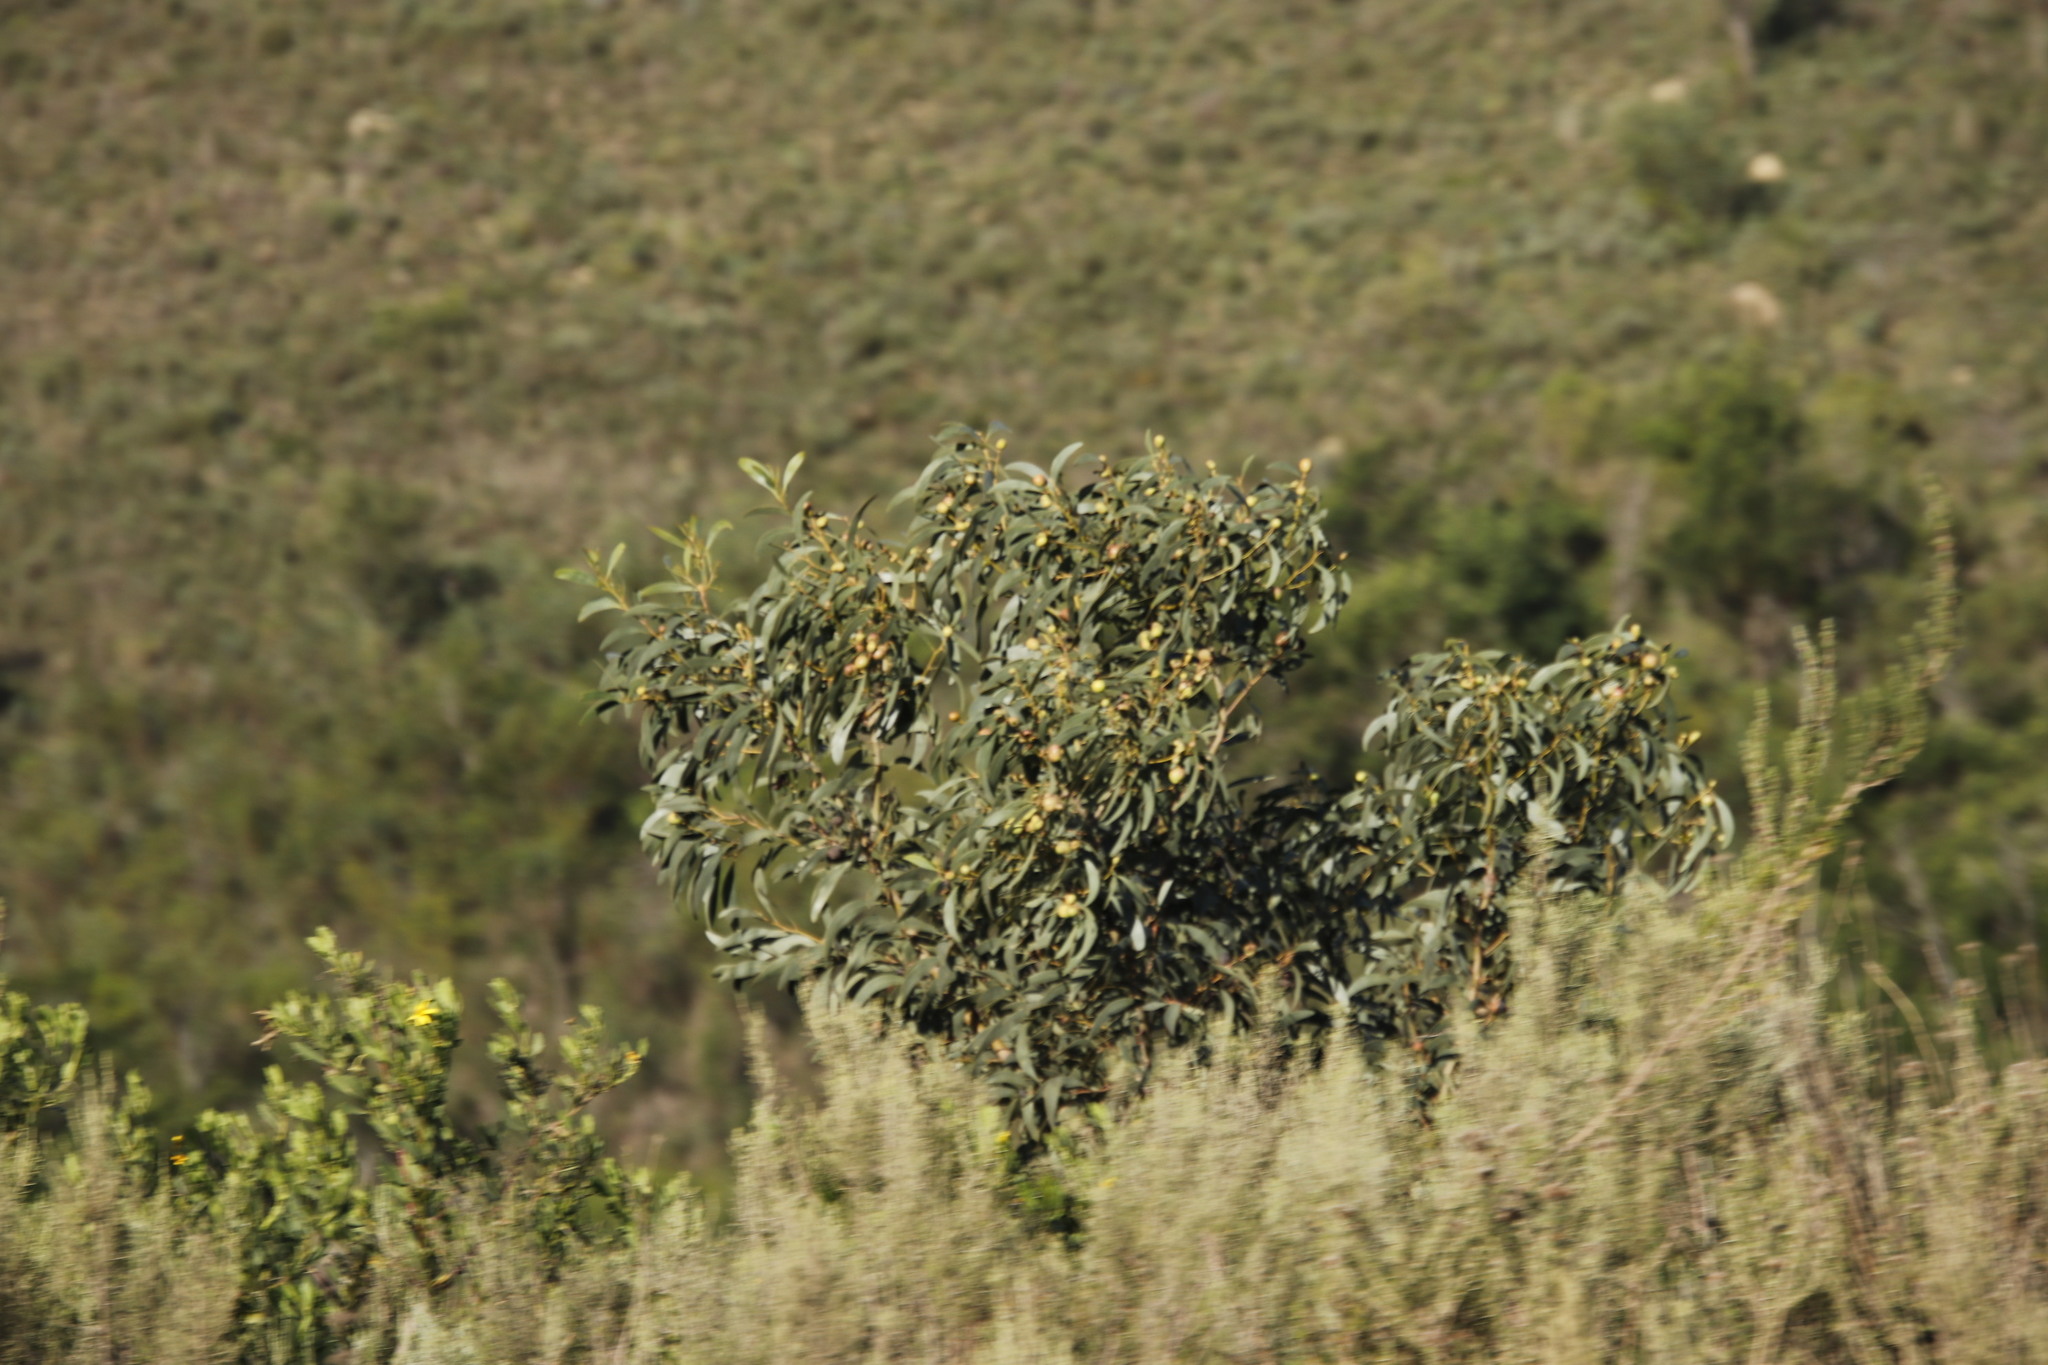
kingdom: Plantae
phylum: Tracheophyta
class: Magnoliopsida
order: Fabales
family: Fabaceae
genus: Acacia
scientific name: Acacia pycnantha
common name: Golden wattle
